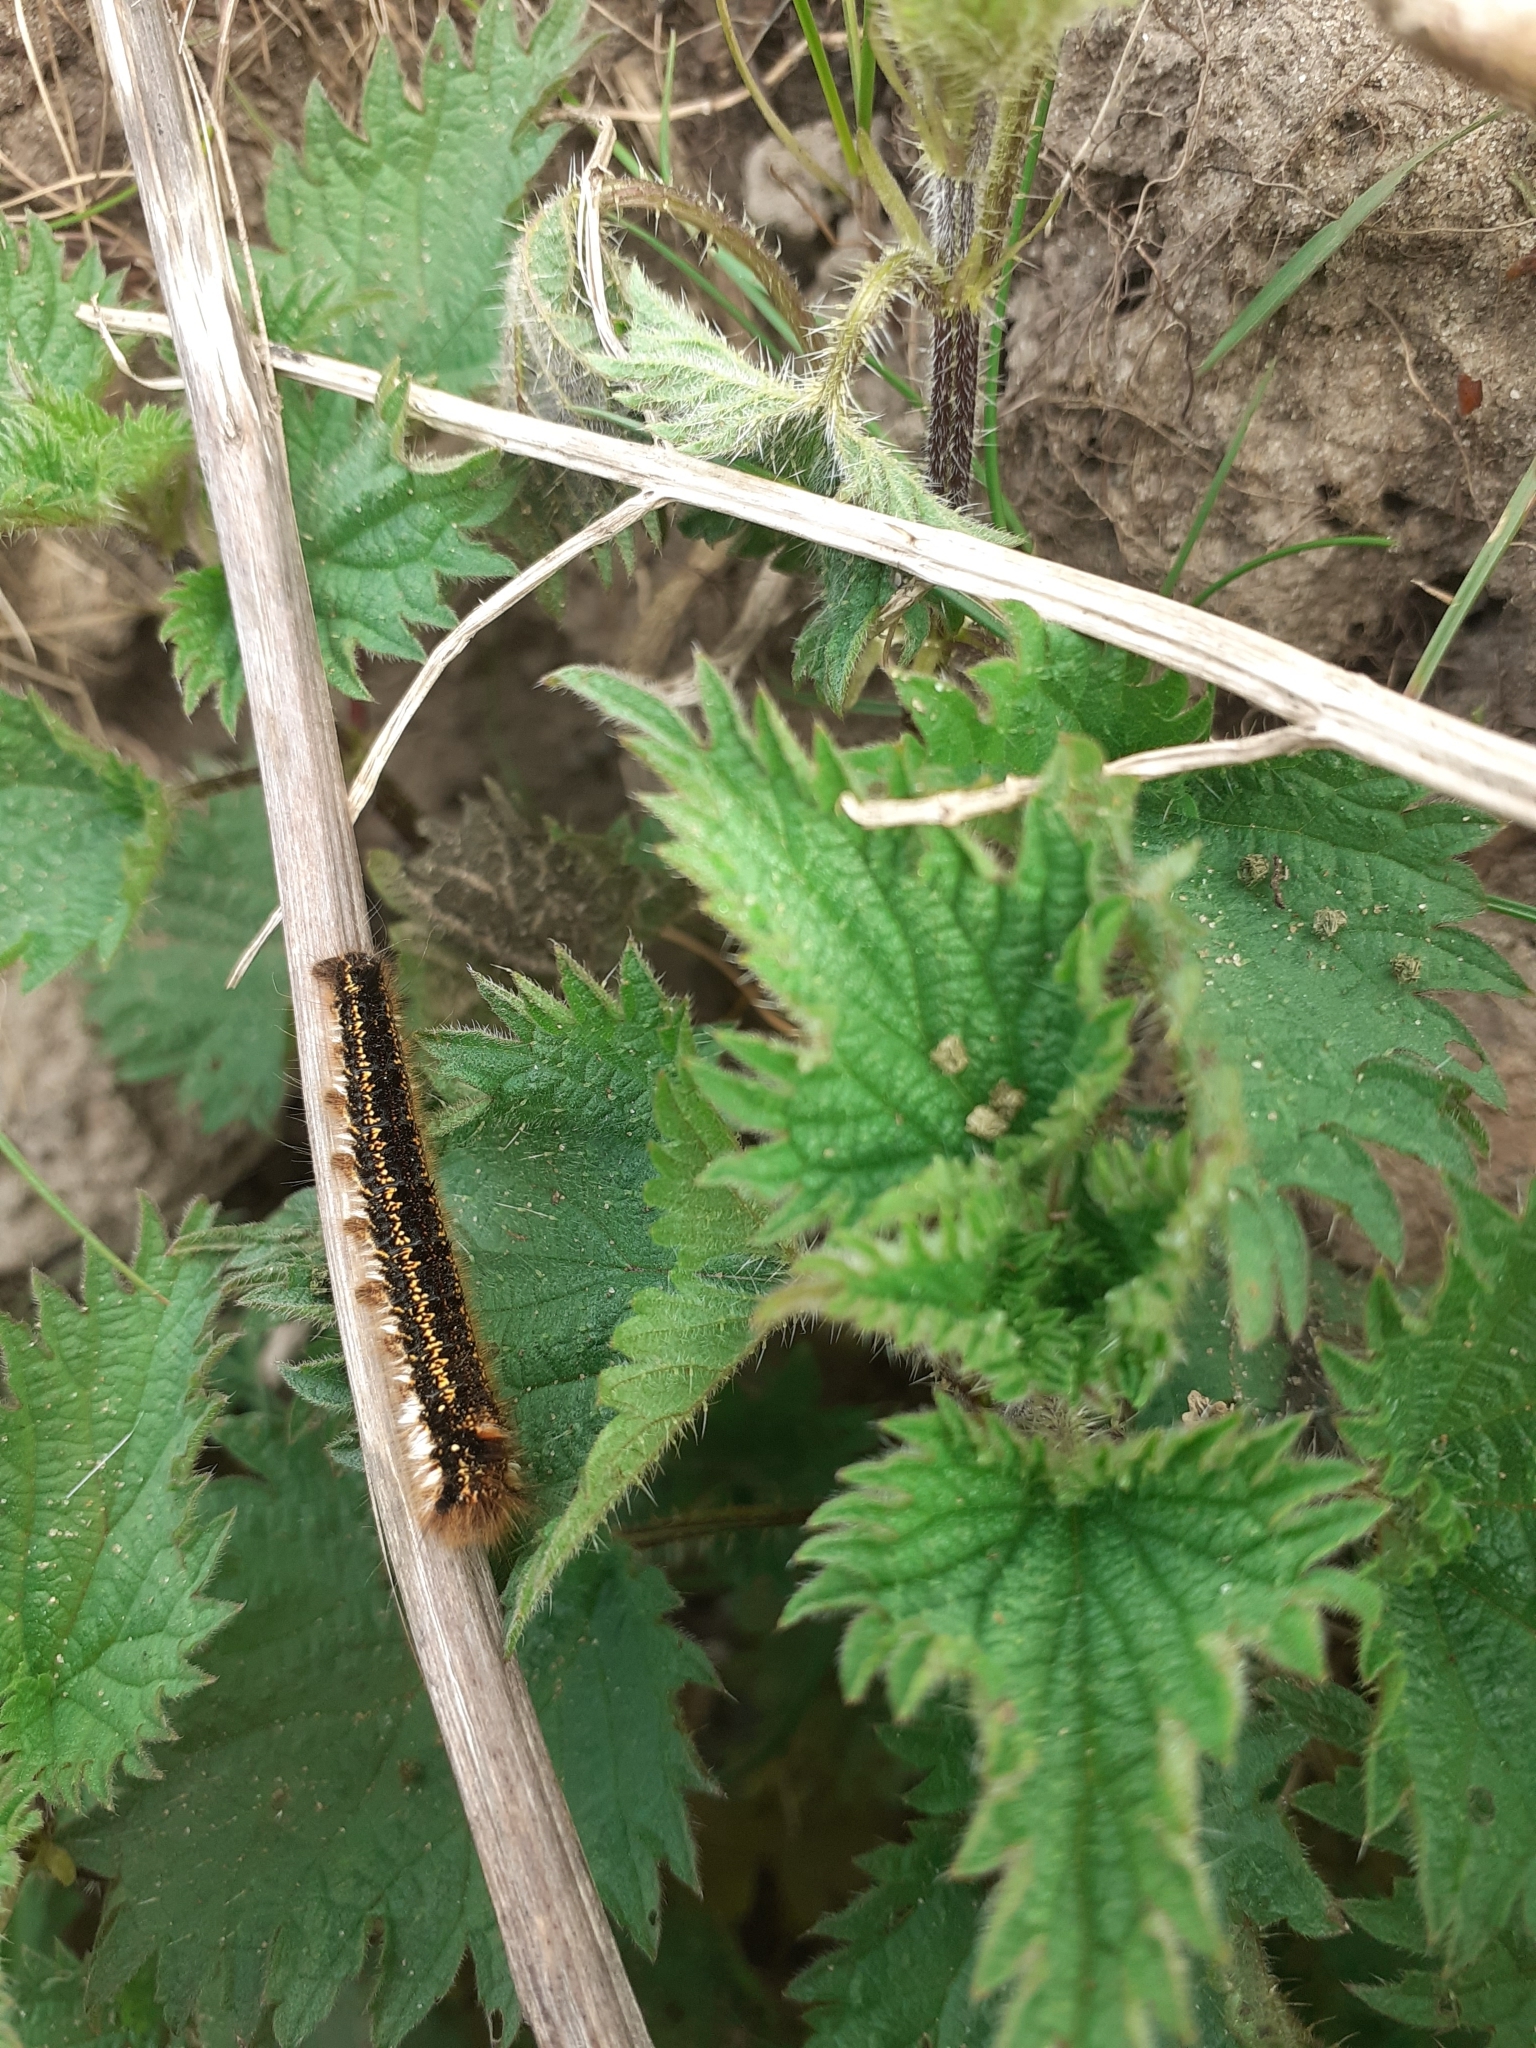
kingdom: Animalia
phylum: Arthropoda
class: Insecta
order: Lepidoptera
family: Lasiocampidae
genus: Euthrix
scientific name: Euthrix potatoria
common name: Drinker
